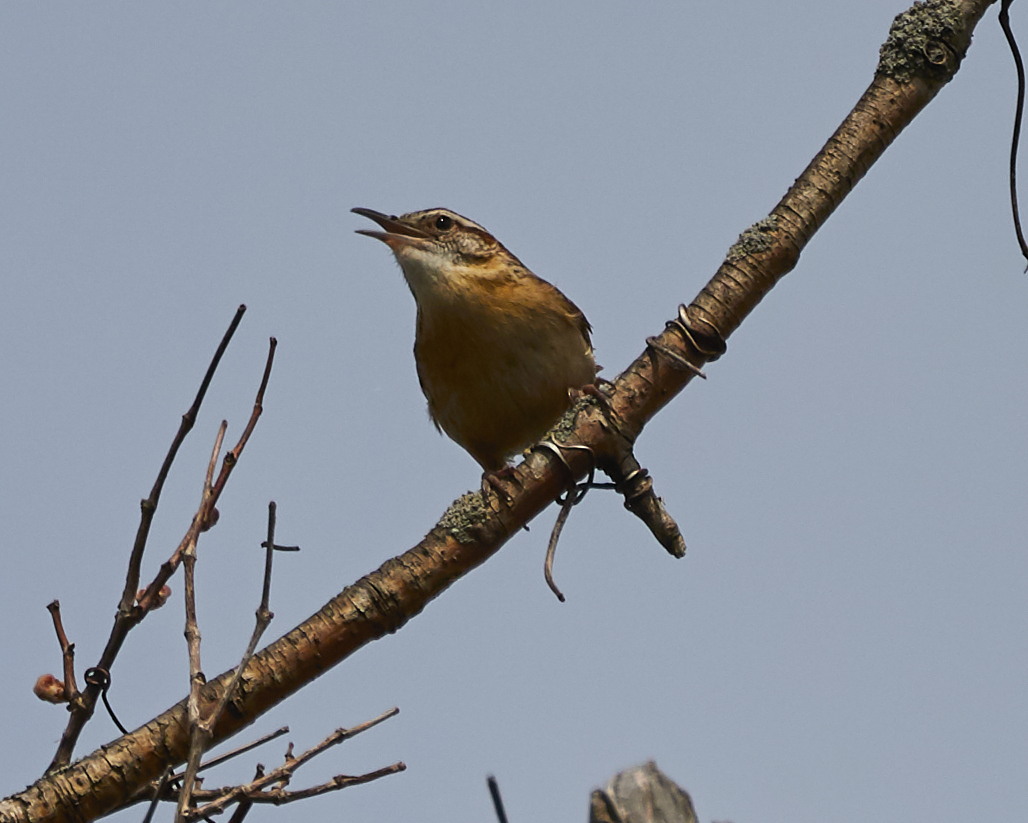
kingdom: Animalia
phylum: Chordata
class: Aves
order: Passeriformes
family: Troglodytidae
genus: Thryothorus
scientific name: Thryothorus ludovicianus
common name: Carolina wren
